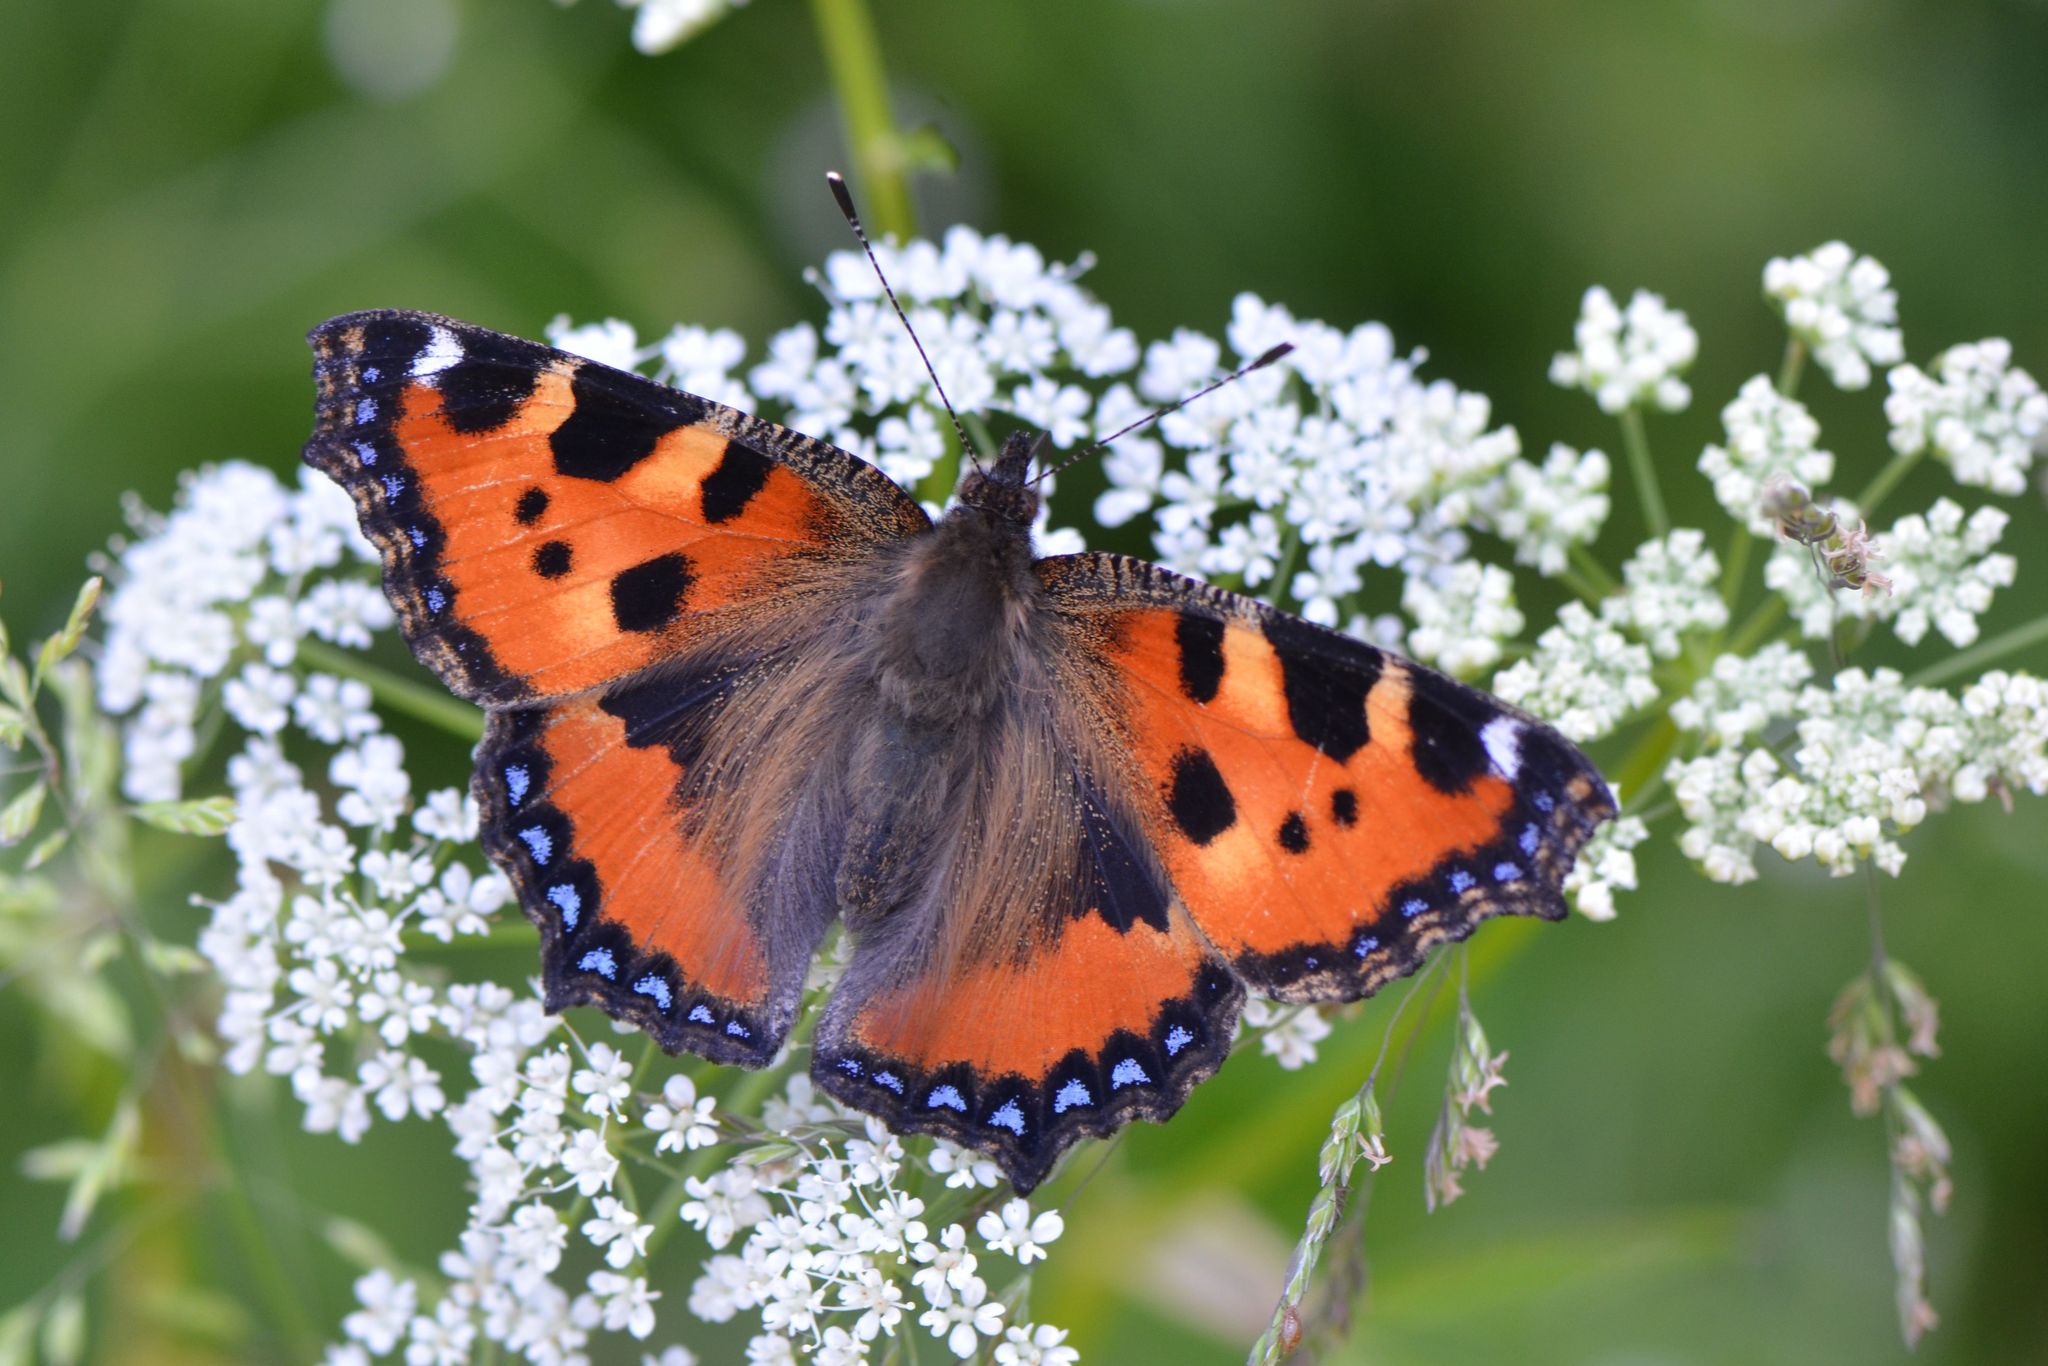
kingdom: Animalia
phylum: Arthropoda
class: Insecta
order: Lepidoptera
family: Nymphalidae
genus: Aglais
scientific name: Aglais urticae
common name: Small tortoiseshell
